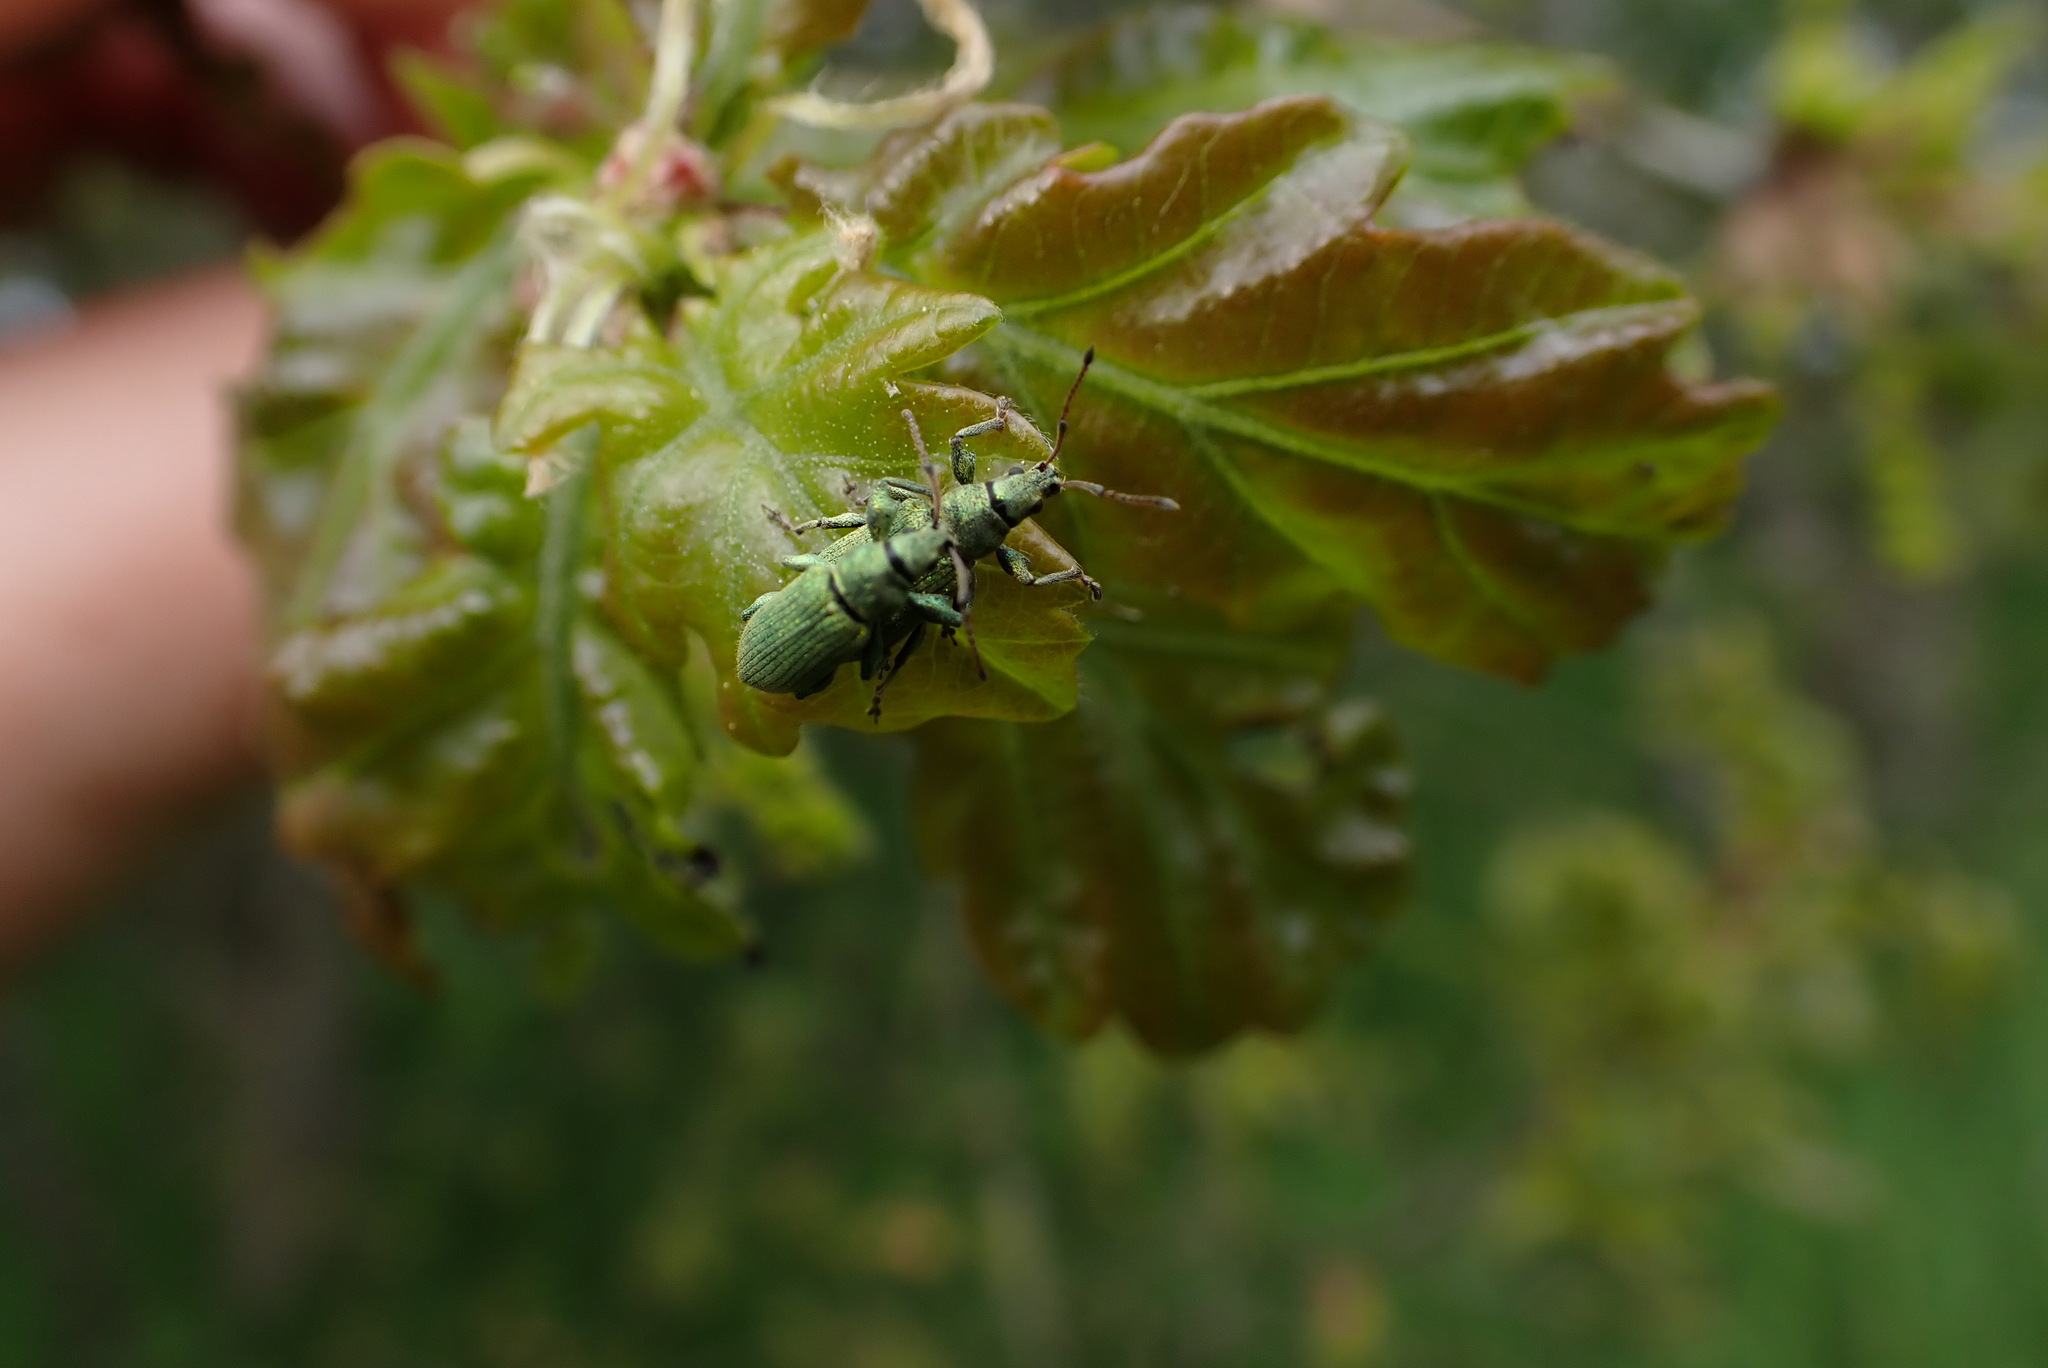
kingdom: Animalia
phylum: Arthropoda
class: Insecta
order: Coleoptera
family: Curculionidae
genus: Phyllobius
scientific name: Phyllobius maculicornis
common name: Green leaf weevil
